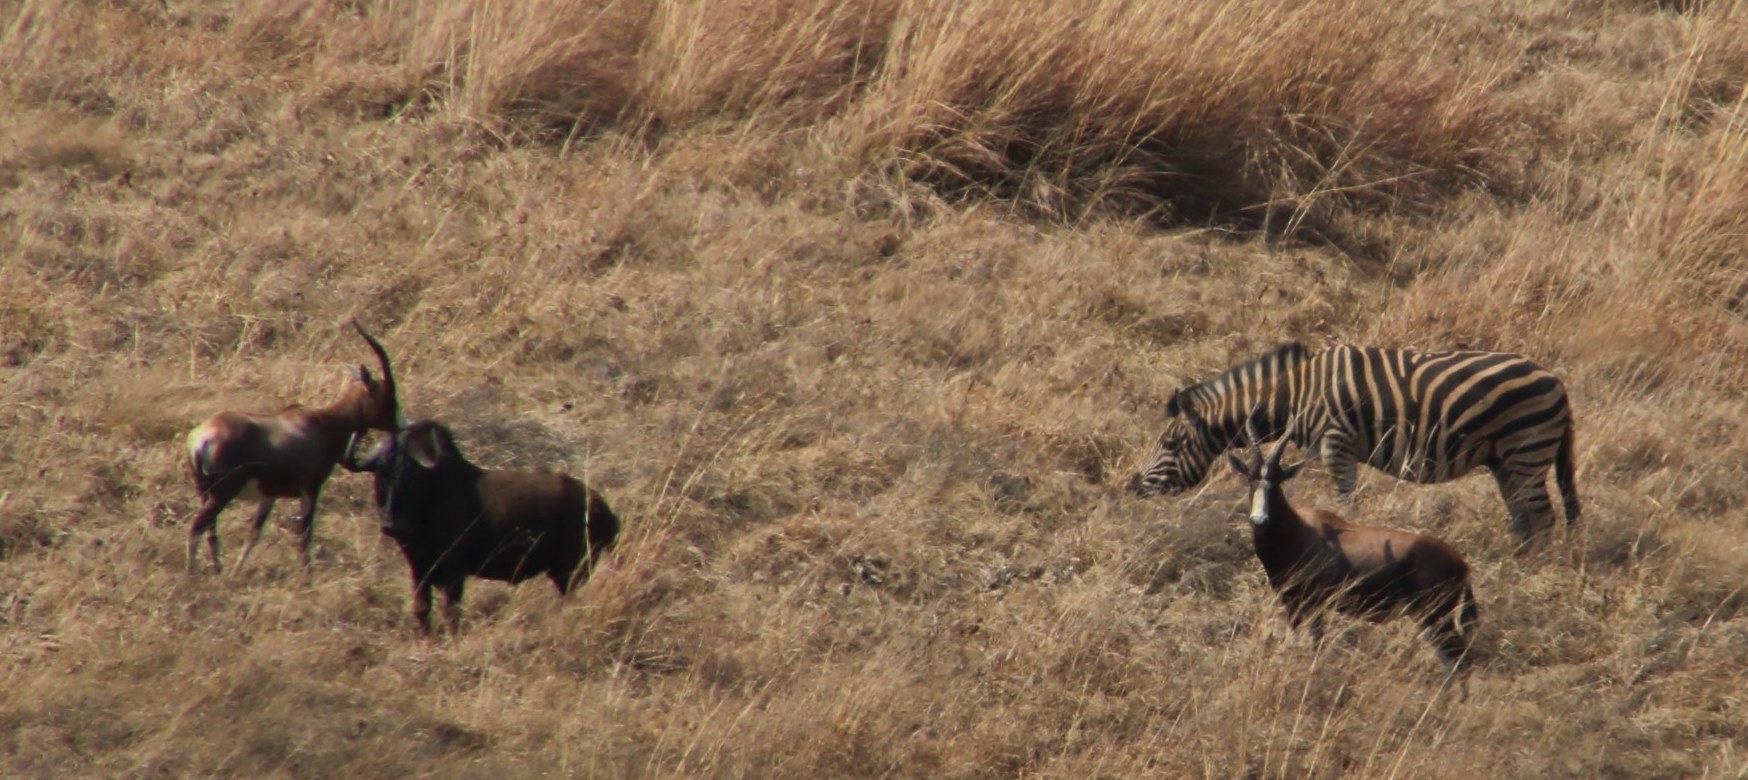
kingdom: Animalia
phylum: Chordata
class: Mammalia
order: Perissodactyla
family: Equidae
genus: Equus
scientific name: Equus quagga
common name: Plains zebra
